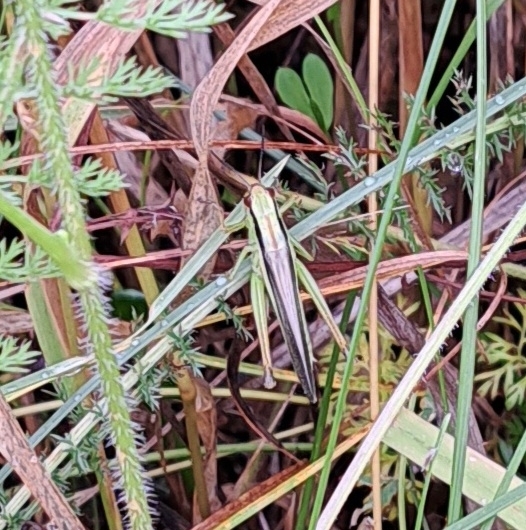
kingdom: Animalia
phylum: Arthropoda
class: Insecta
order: Orthoptera
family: Acrididae
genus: Mecostethus
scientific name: Mecostethus parapleurus
